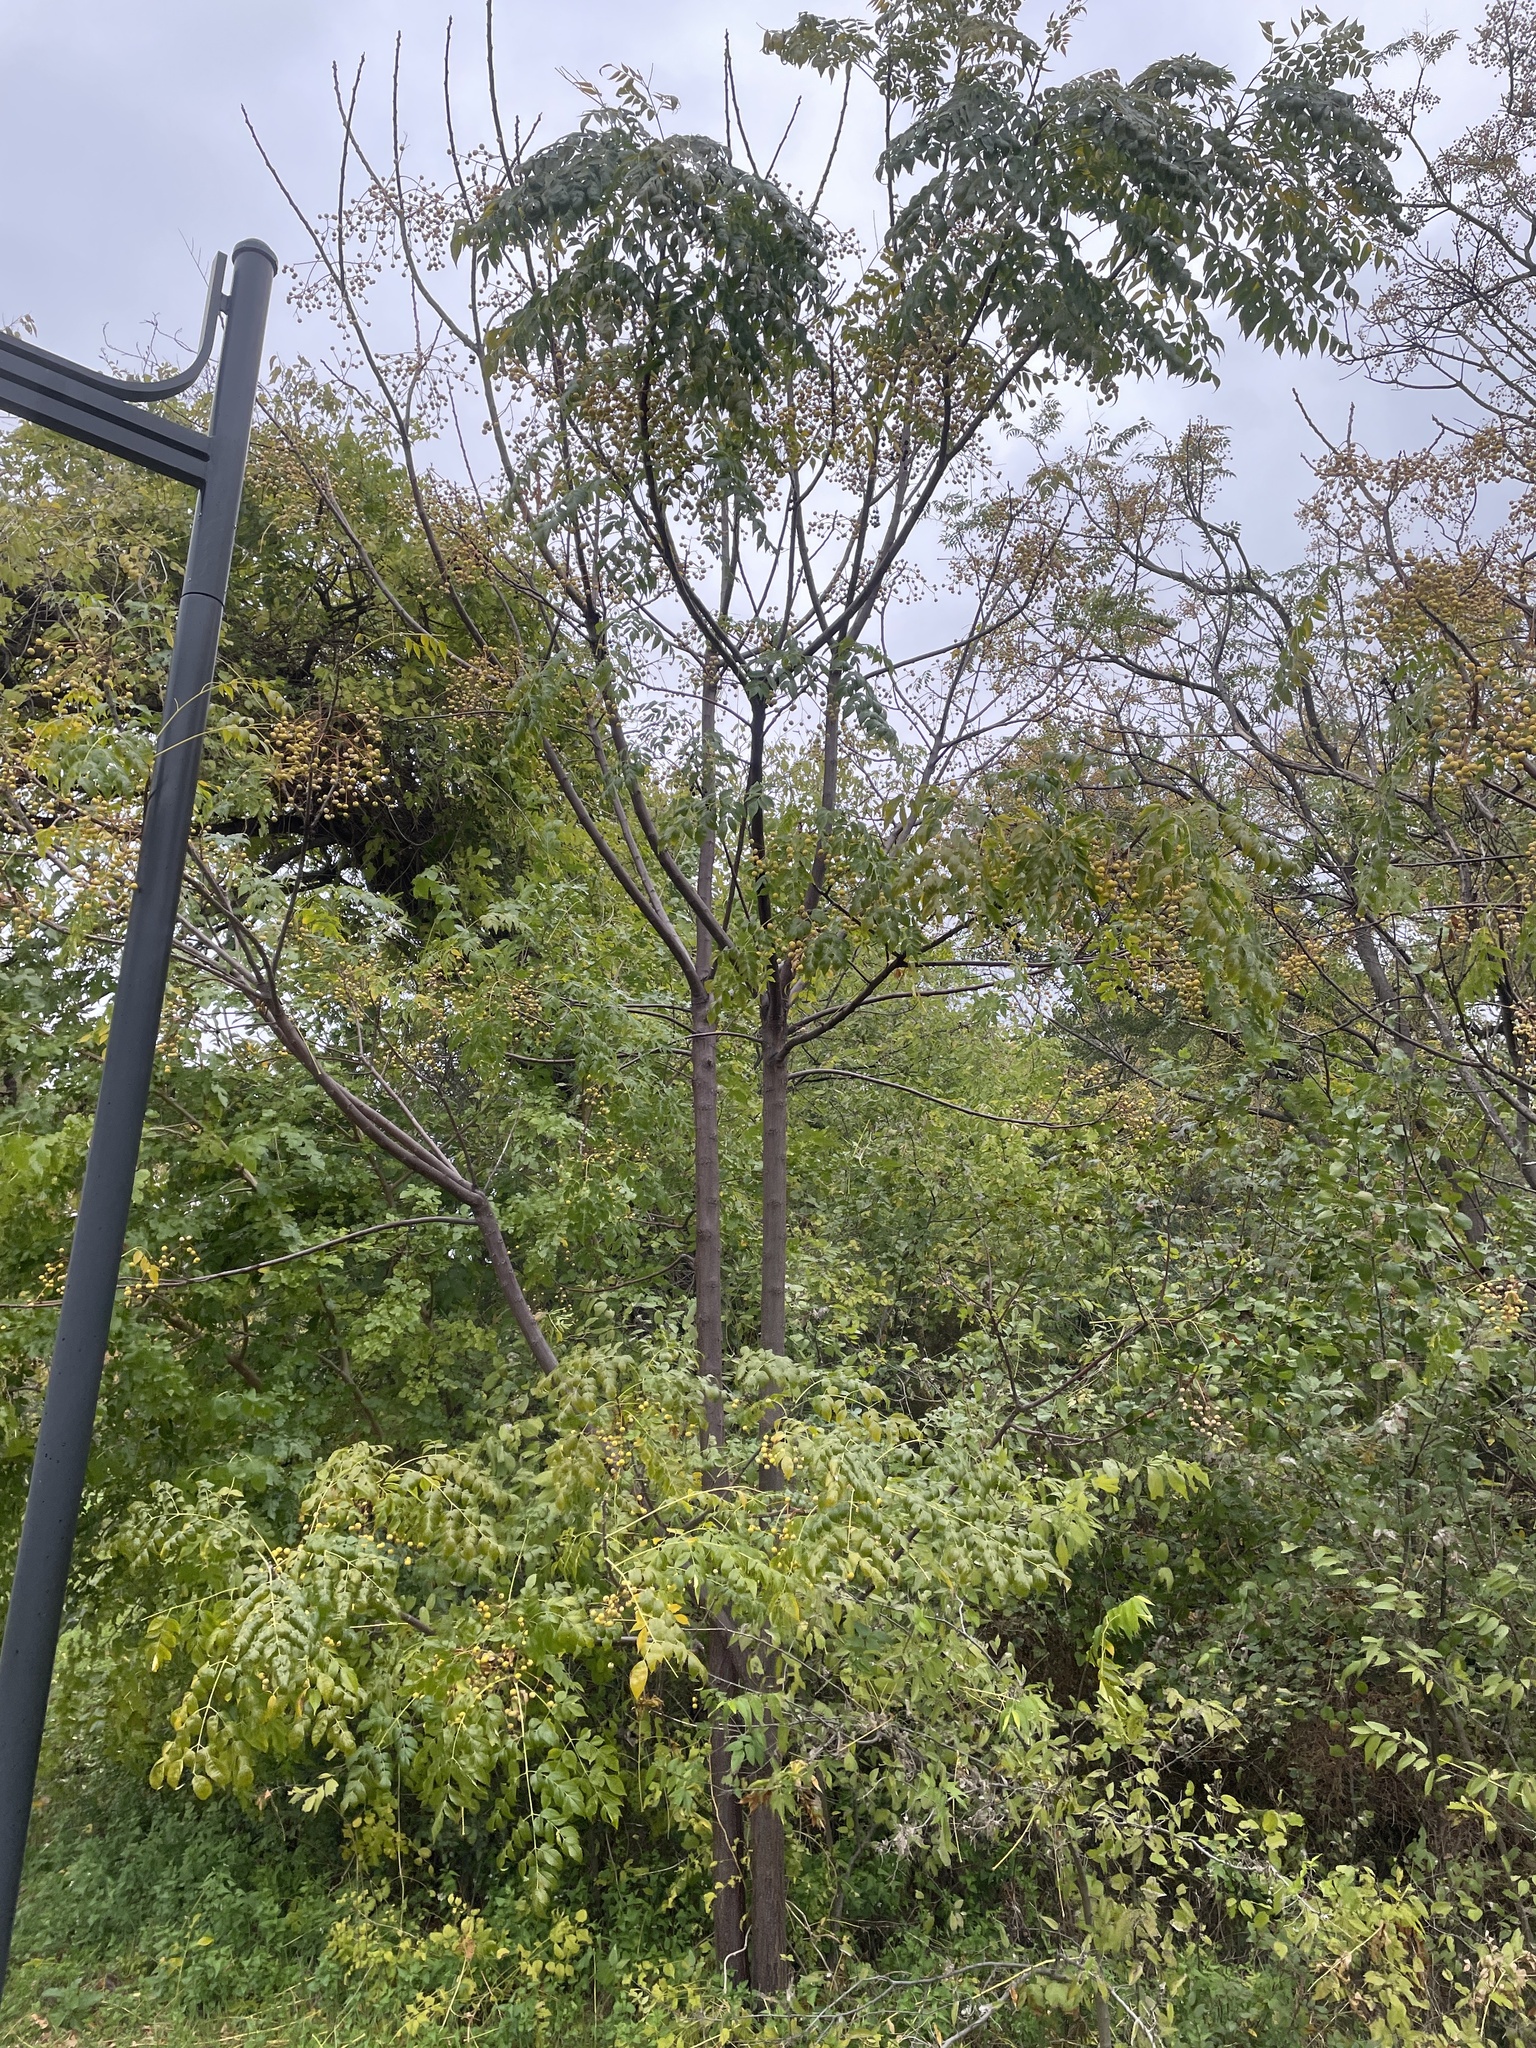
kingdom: Plantae
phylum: Tracheophyta
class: Magnoliopsida
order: Sapindales
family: Meliaceae
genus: Melia
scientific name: Melia azedarach
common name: Chinaberrytree
